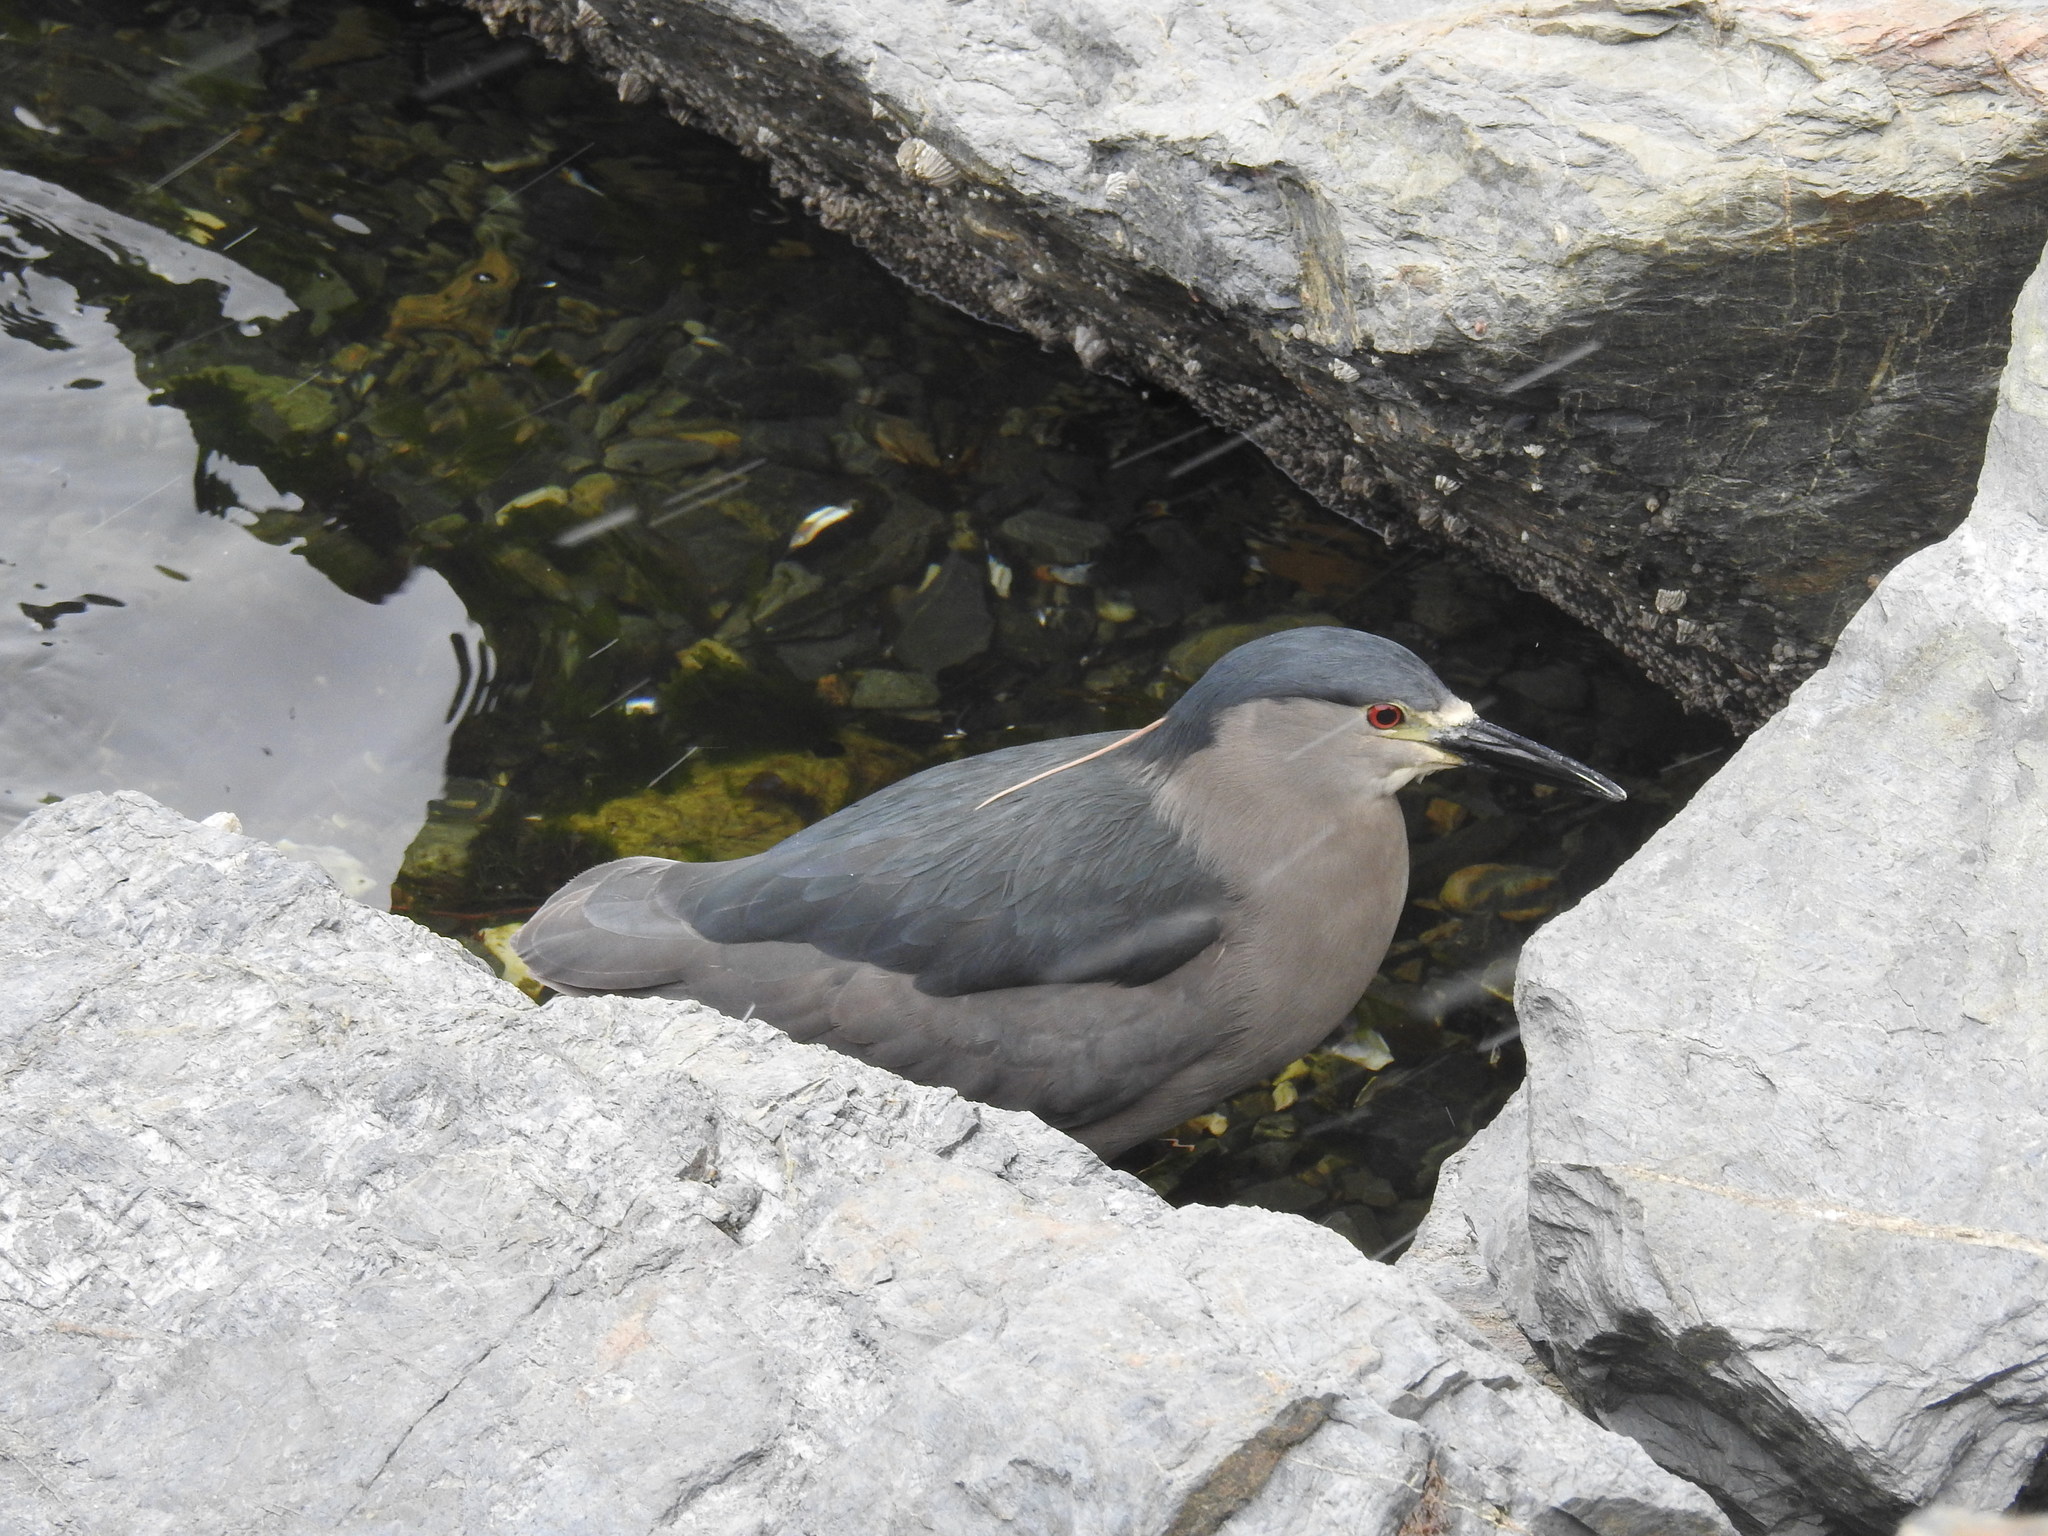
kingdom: Animalia
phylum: Chordata
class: Aves
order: Pelecaniformes
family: Ardeidae
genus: Nycticorax
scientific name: Nycticorax nycticorax
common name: Black-crowned night heron
